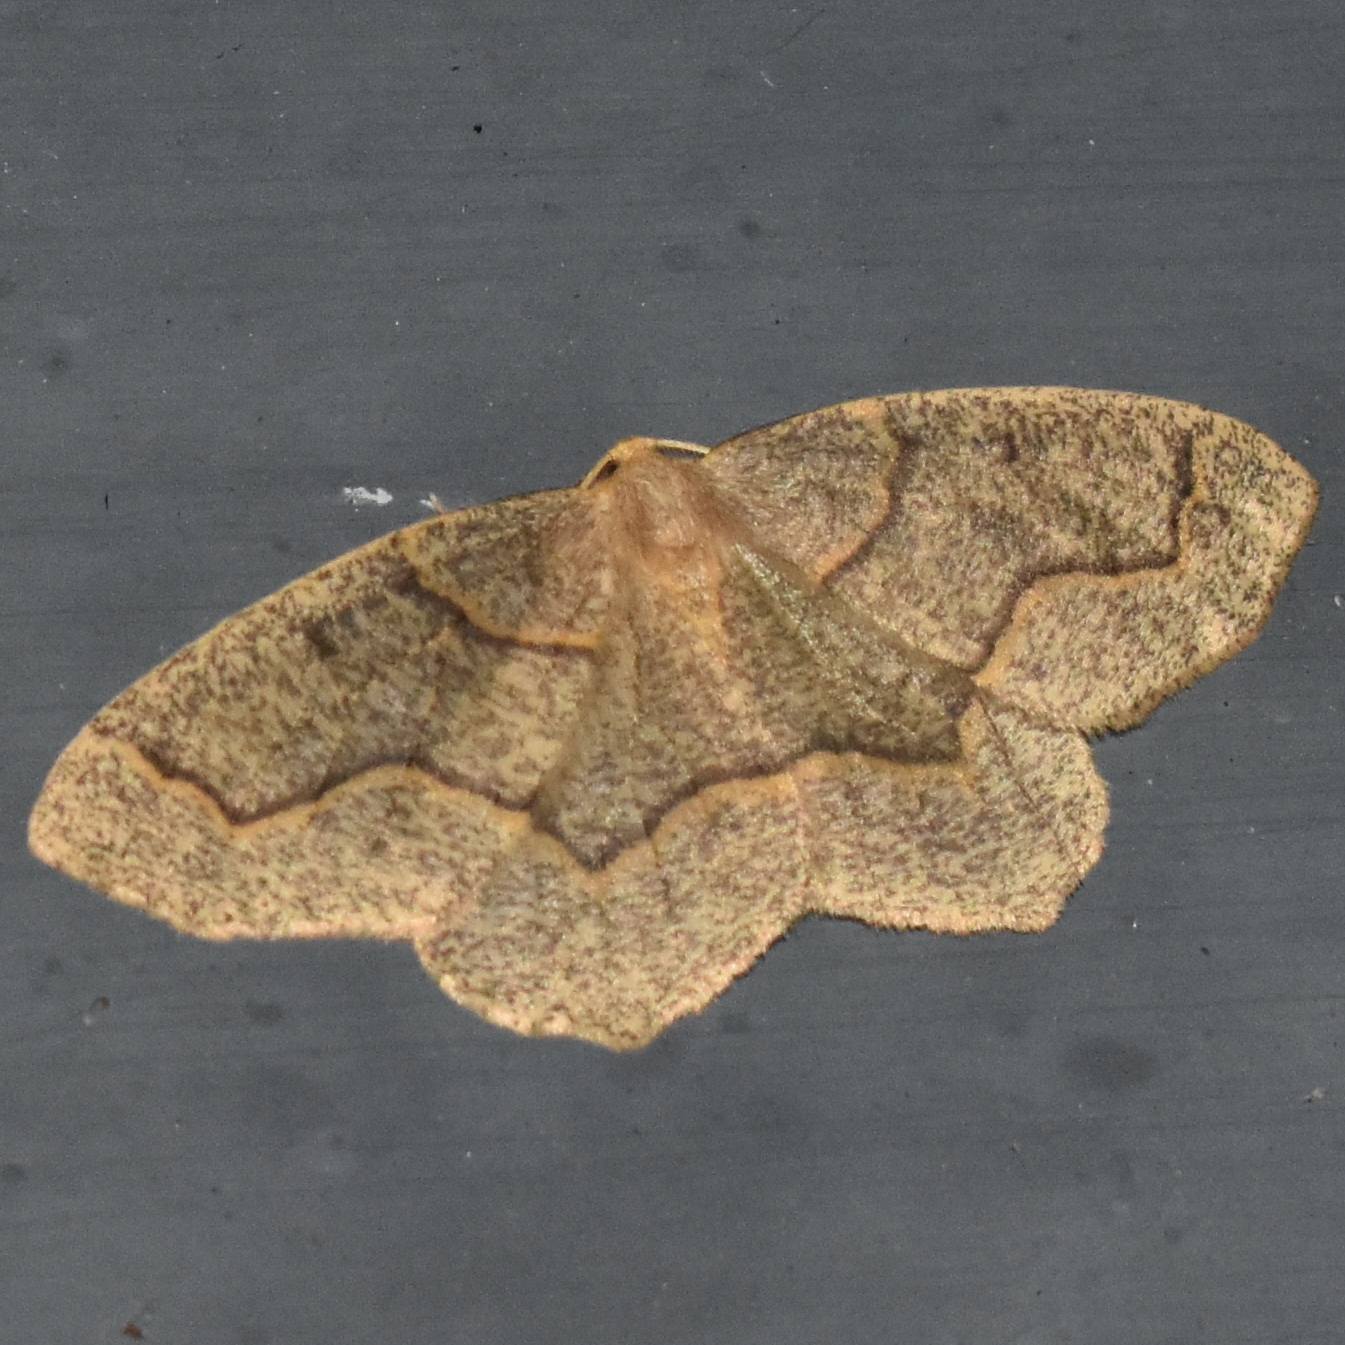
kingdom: Animalia
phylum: Arthropoda
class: Insecta
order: Lepidoptera
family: Geometridae
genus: Lambdina
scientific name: Lambdina fiscellaria
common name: Hemlock looper
